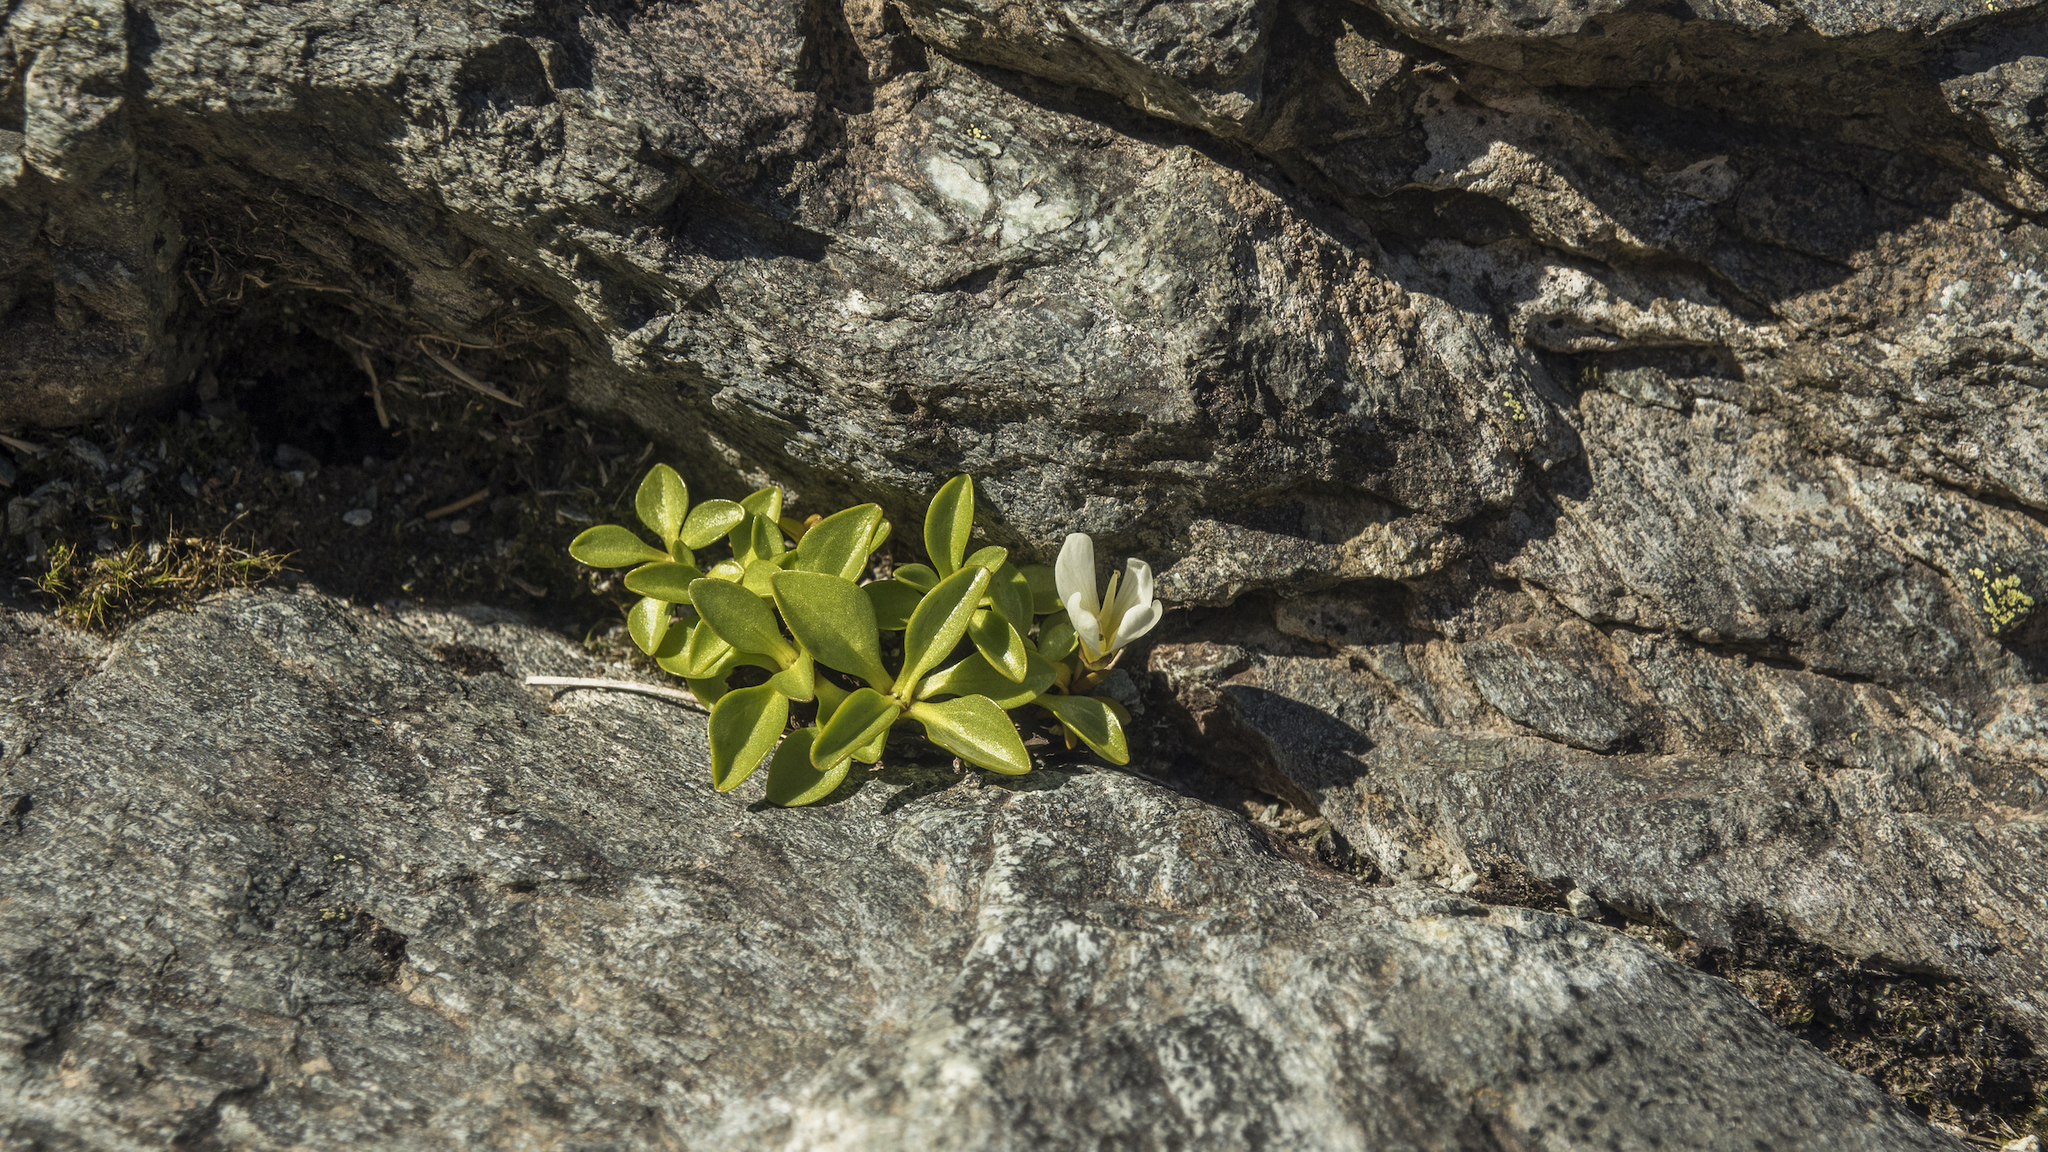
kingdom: Plantae
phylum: Tracheophyta
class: Magnoliopsida
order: Gentianales
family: Gentianaceae
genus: Gentianella
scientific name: Gentianella bellidifolia
